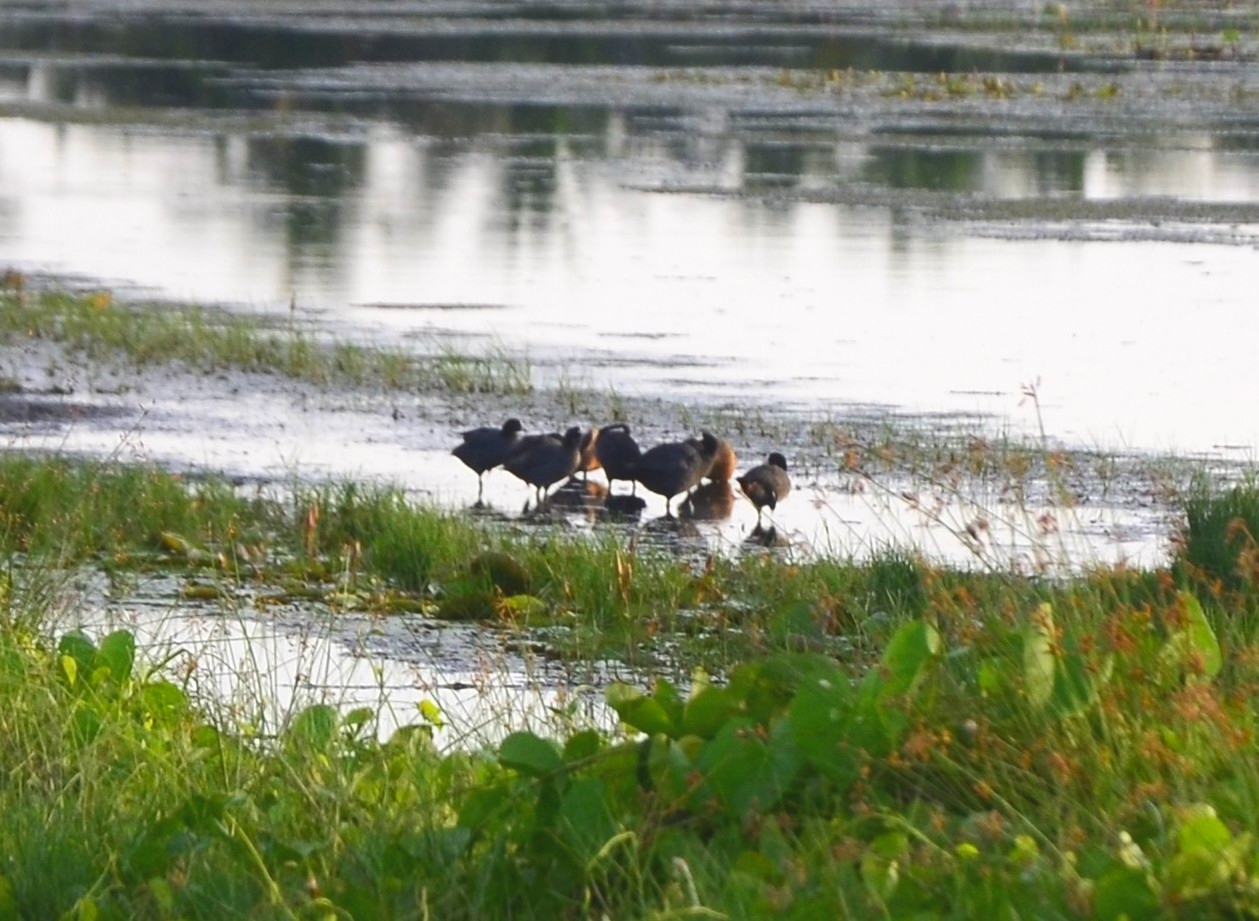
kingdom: Animalia
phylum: Chordata
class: Aves
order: Gruiformes
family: Rallidae
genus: Fulica
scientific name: Fulica atra
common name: Eurasian coot
